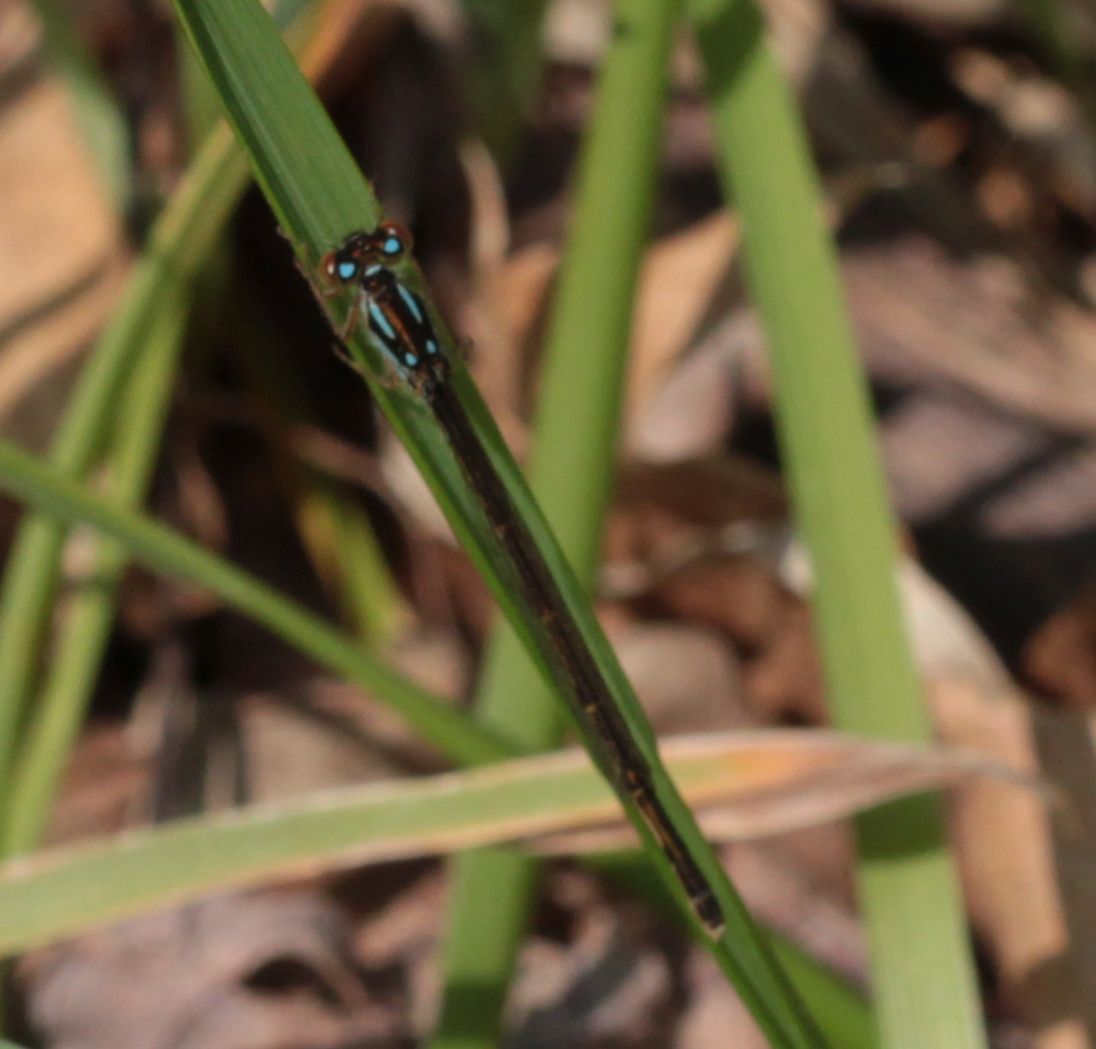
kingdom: Animalia
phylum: Arthropoda
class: Insecta
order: Odonata
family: Coenagrionidae
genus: Ischnura
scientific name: Ischnura posita
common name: Fragile forktail
